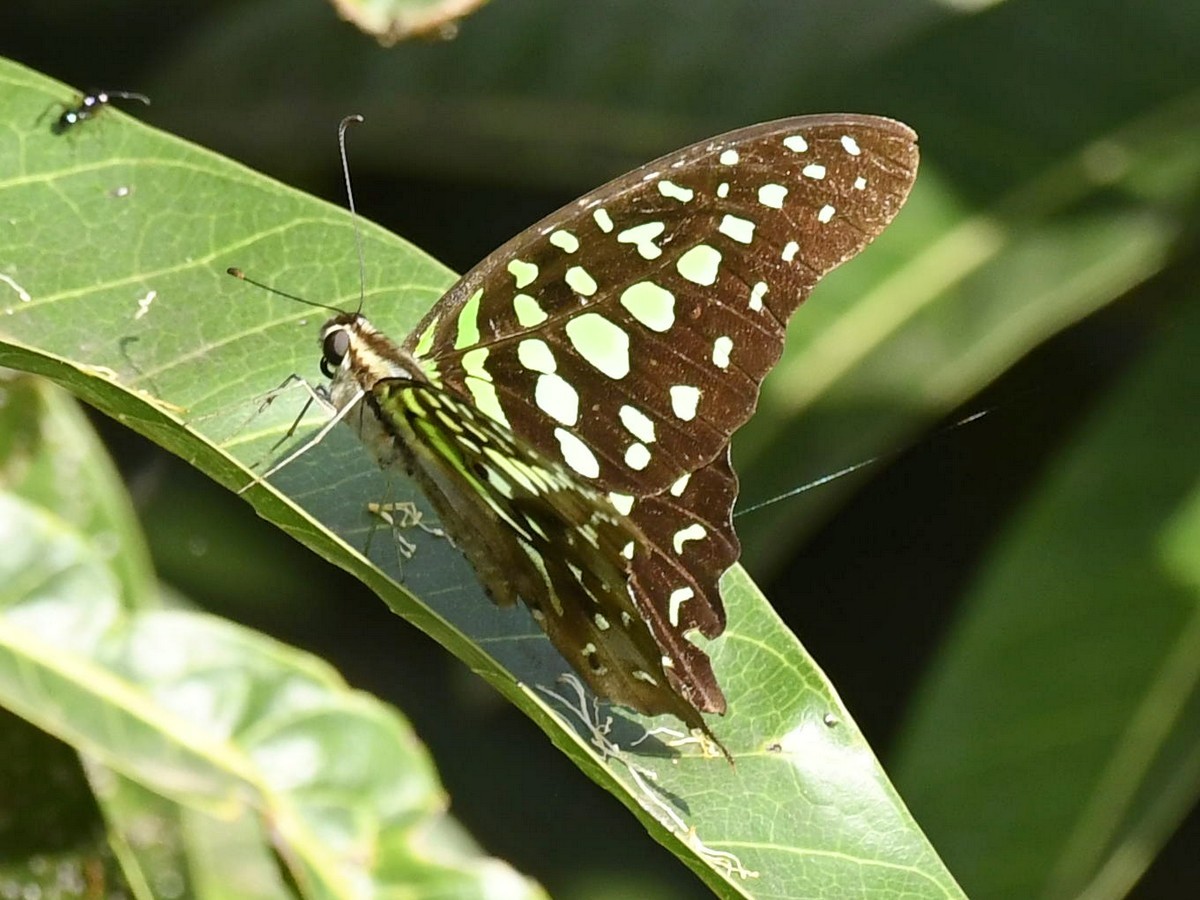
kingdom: Animalia
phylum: Arthropoda
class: Insecta
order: Lepidoptera
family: Papilionidae
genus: Graphium
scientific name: Graphium agamemnon
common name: Tailed jay
